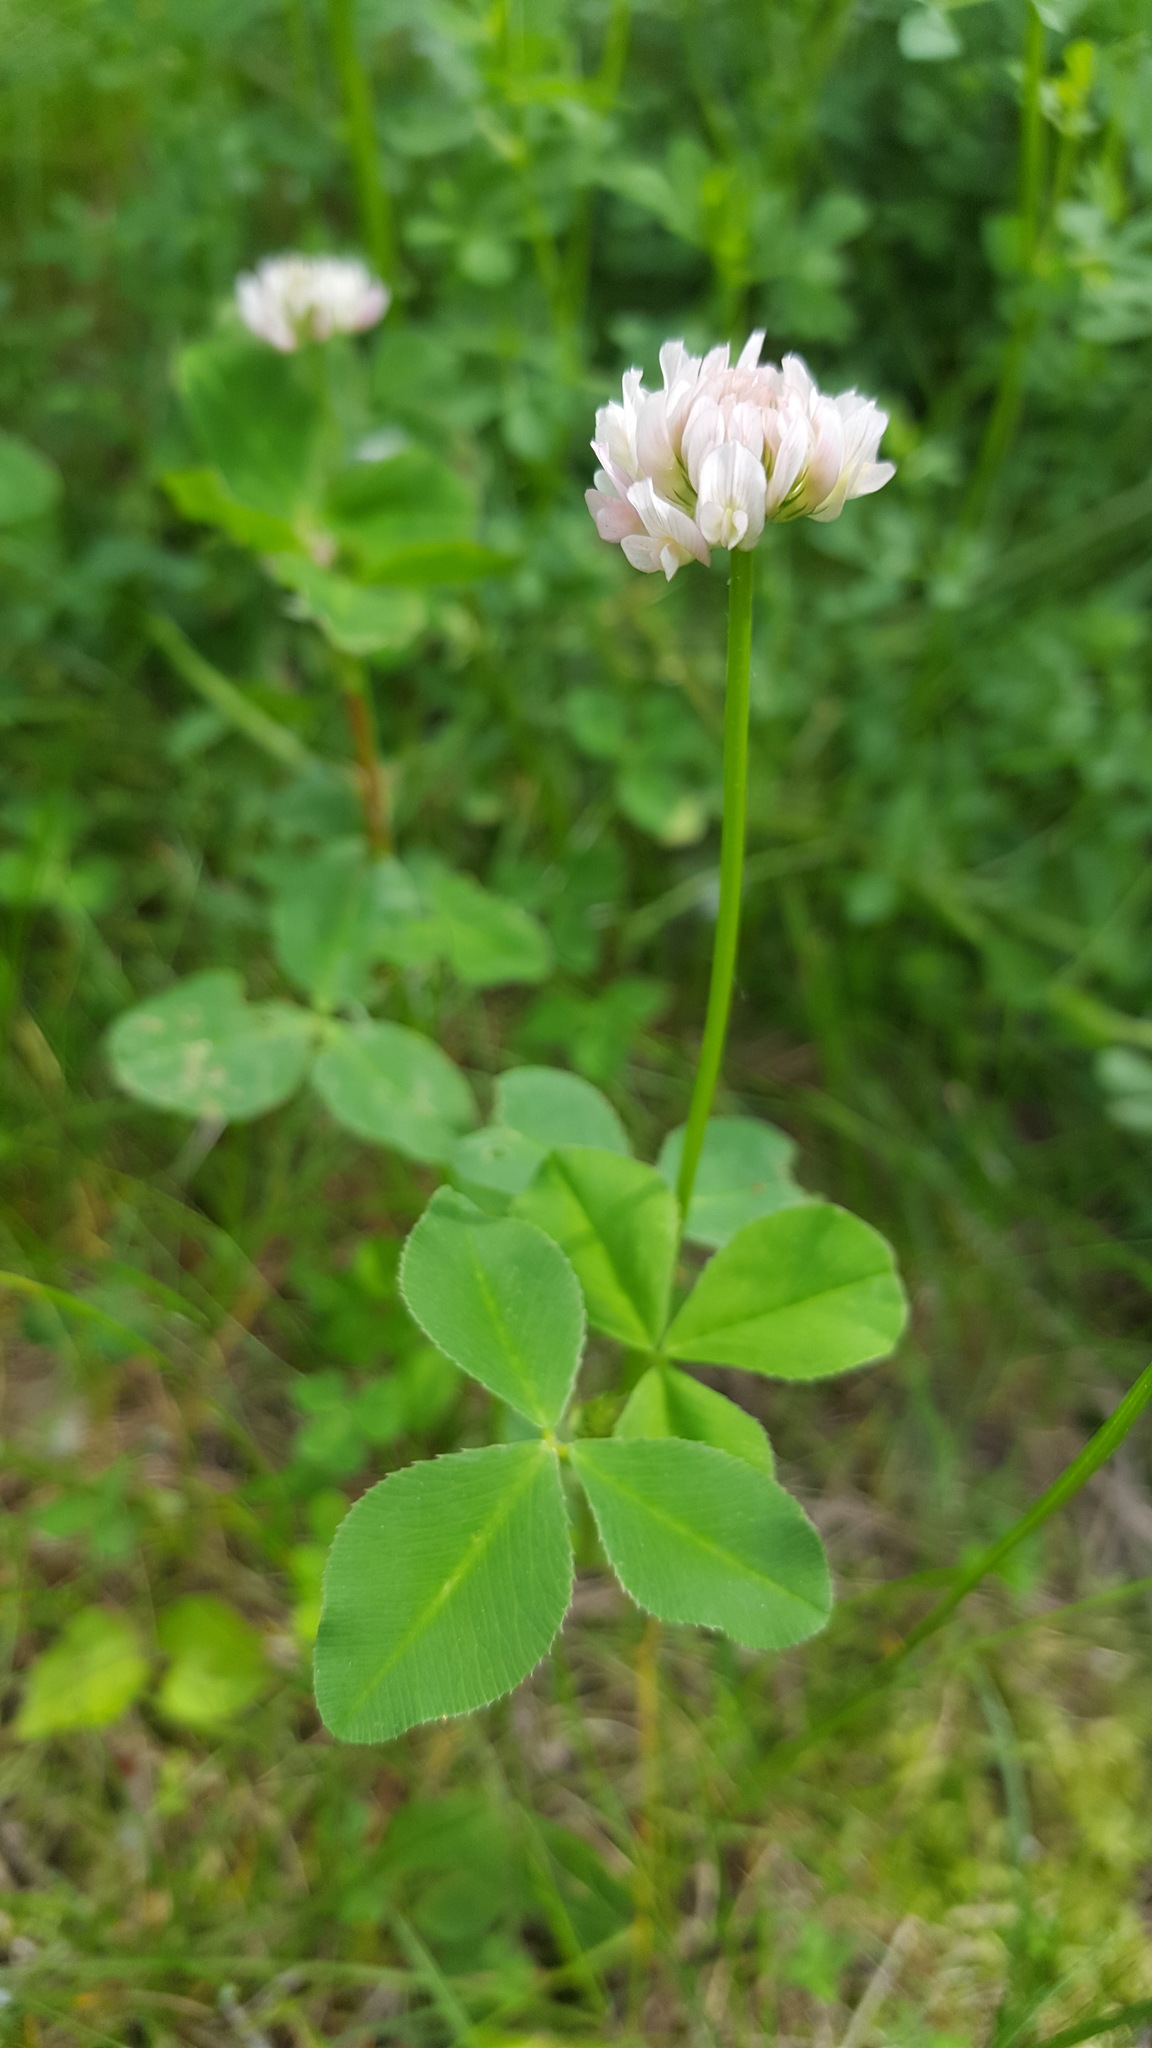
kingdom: Plantae
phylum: Tracheophyta
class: Magnoliopsida
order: Fabales
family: Fabaceae
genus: Trifolium
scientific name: Trifolium hybridum
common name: Alsike clover
